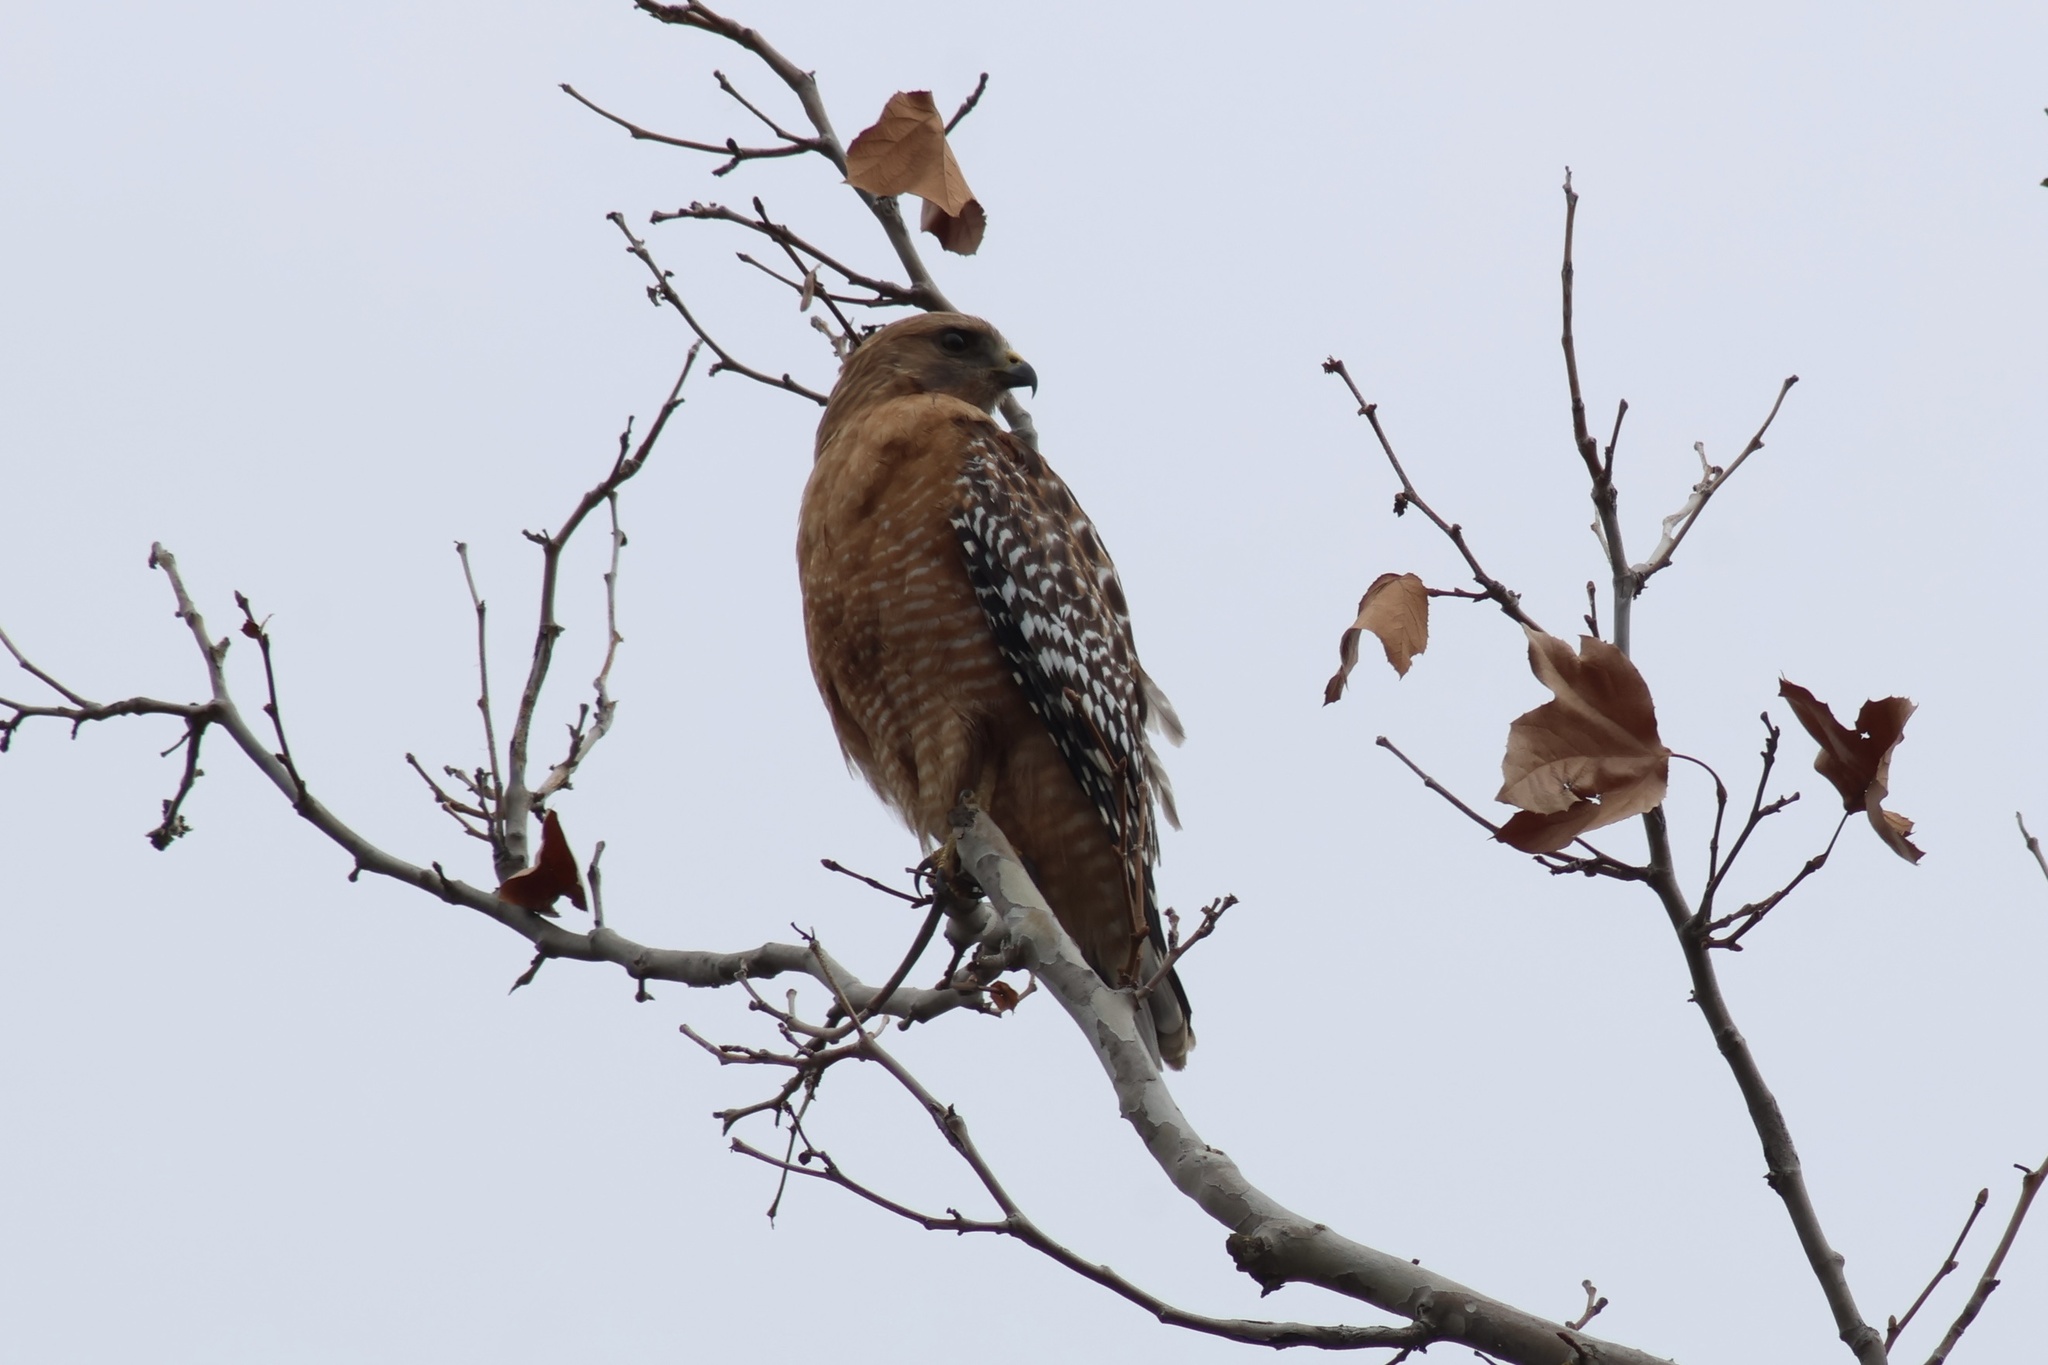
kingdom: Animalia
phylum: Chordata
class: Aves
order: Accipitriformes
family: Accipitridae
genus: Buteo
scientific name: Buteo lineatus
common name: Red-shouldered hawk
